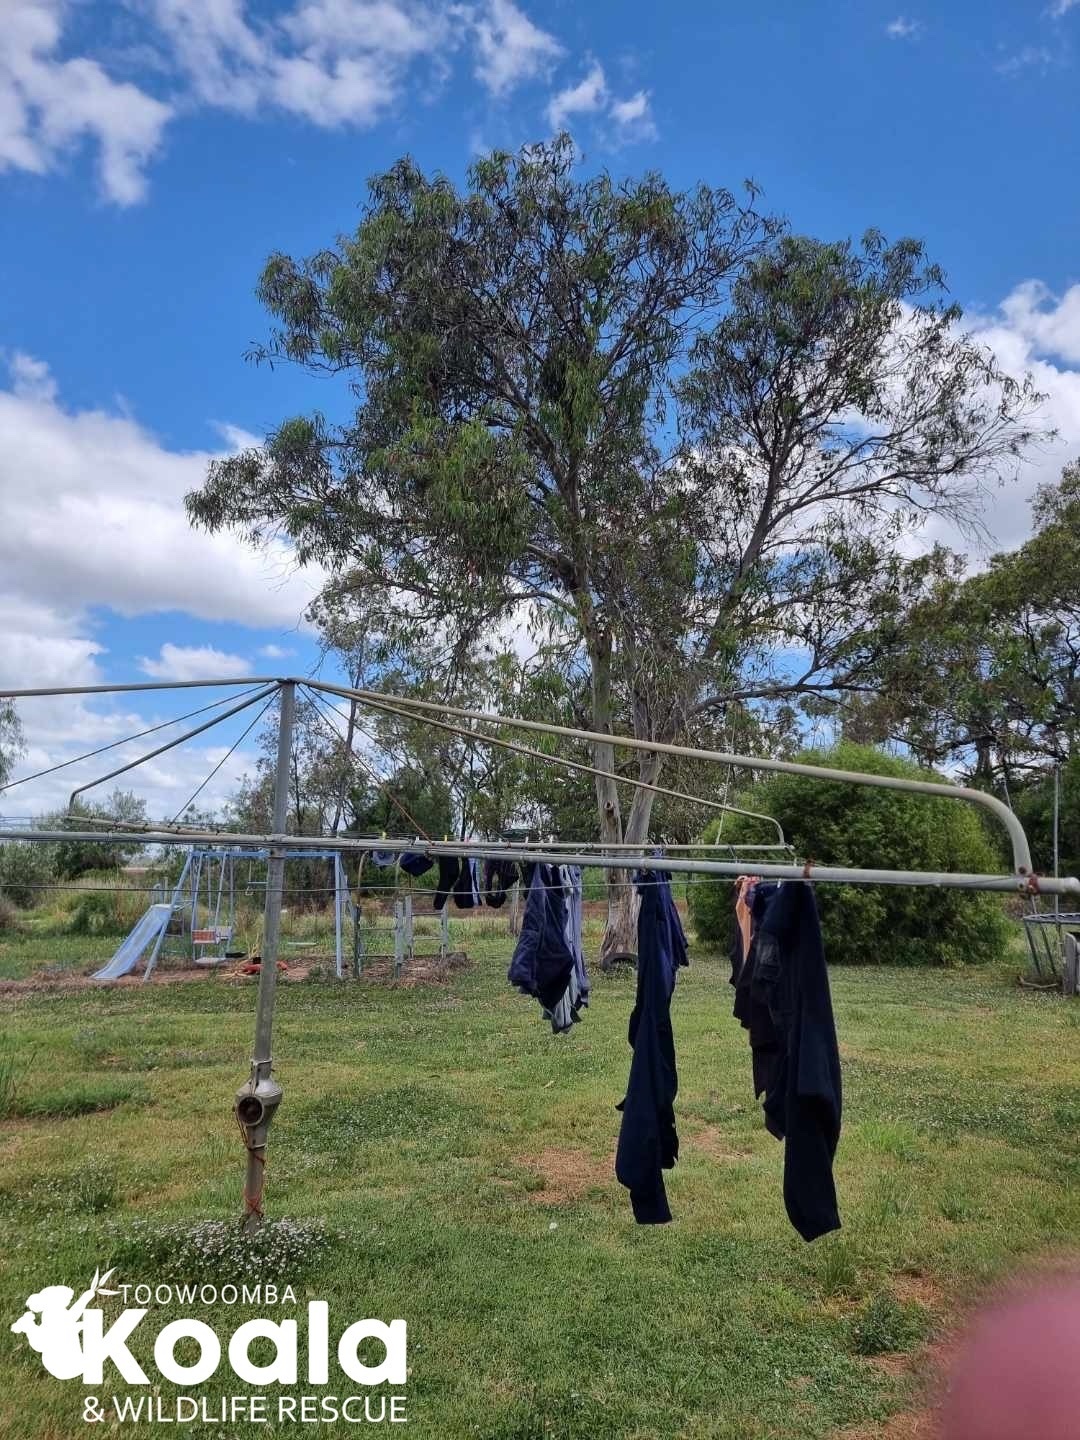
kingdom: Animalia
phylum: Chordata
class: Mammalia
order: Diprotodontia
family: Phascolarctidae
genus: Phascolarctos
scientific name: Phascolarctos cinereus
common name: Koala
